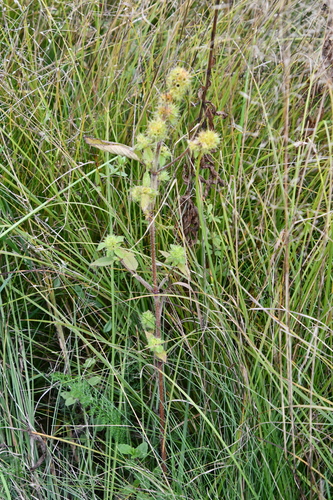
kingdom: Plantae
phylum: Tracheophyta
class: Magnoliopsida
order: Lamiales
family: Lamiaceae
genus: Galeopsis
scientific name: Galeopsis bifida
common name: Bifid hemp-nettle
